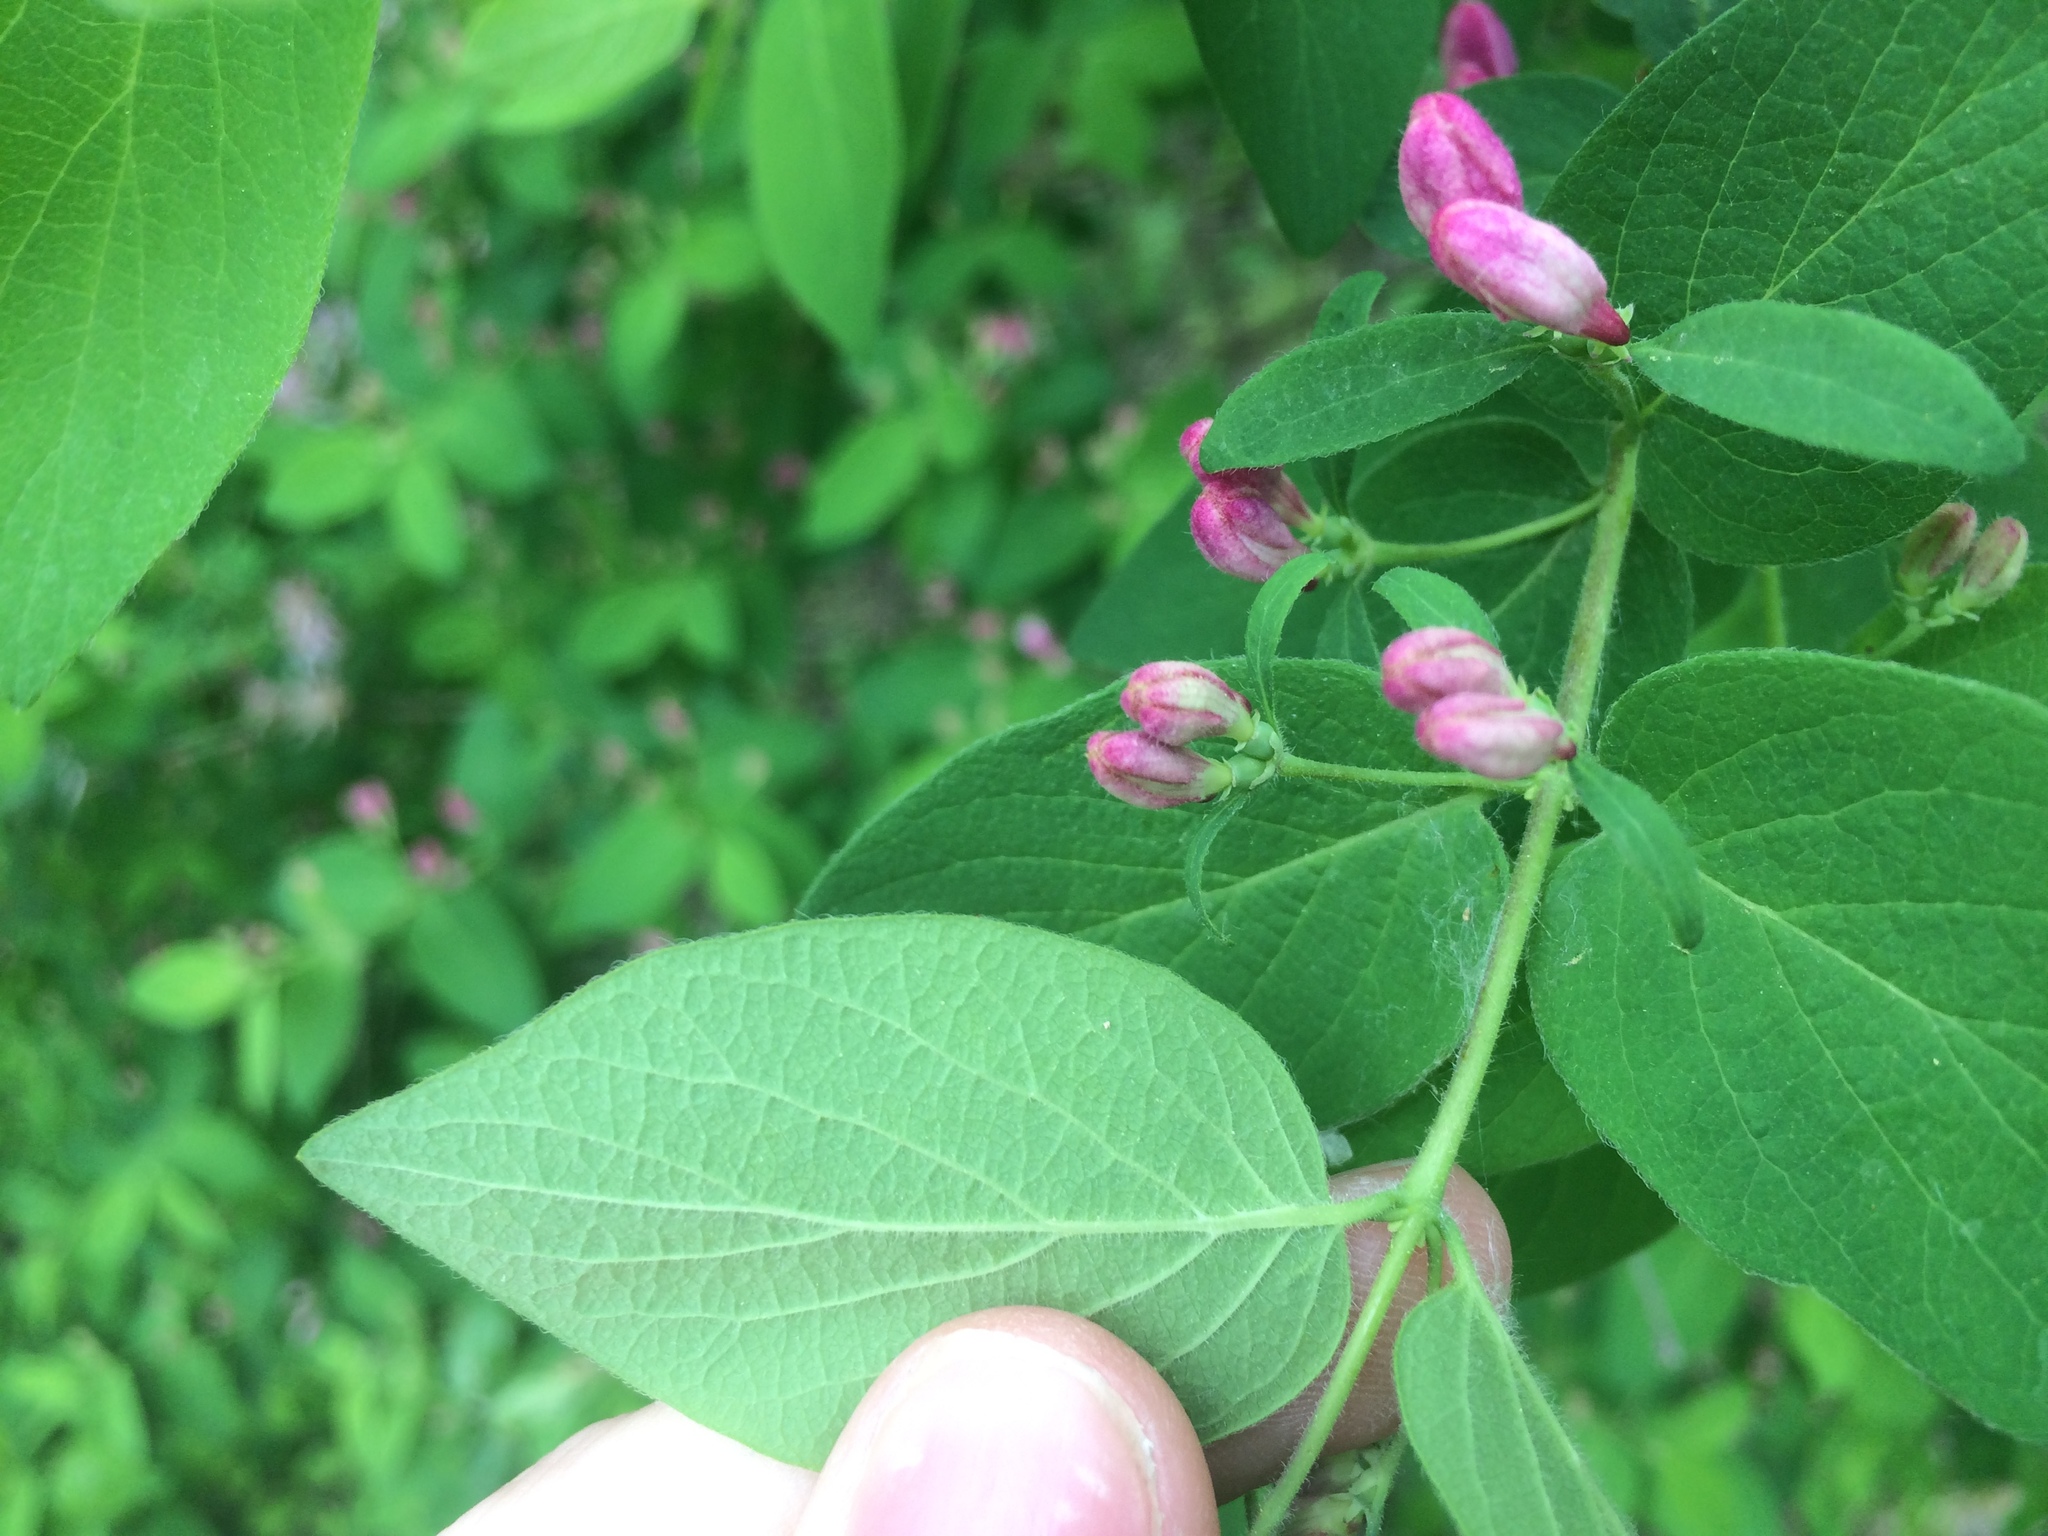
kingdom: Plantae
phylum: Tracheophyta
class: Magnoliopsida
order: Dipsacales
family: Caprifoliaceae
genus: Lonicera
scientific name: Lonicera bella
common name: Bell's honeysuckle
